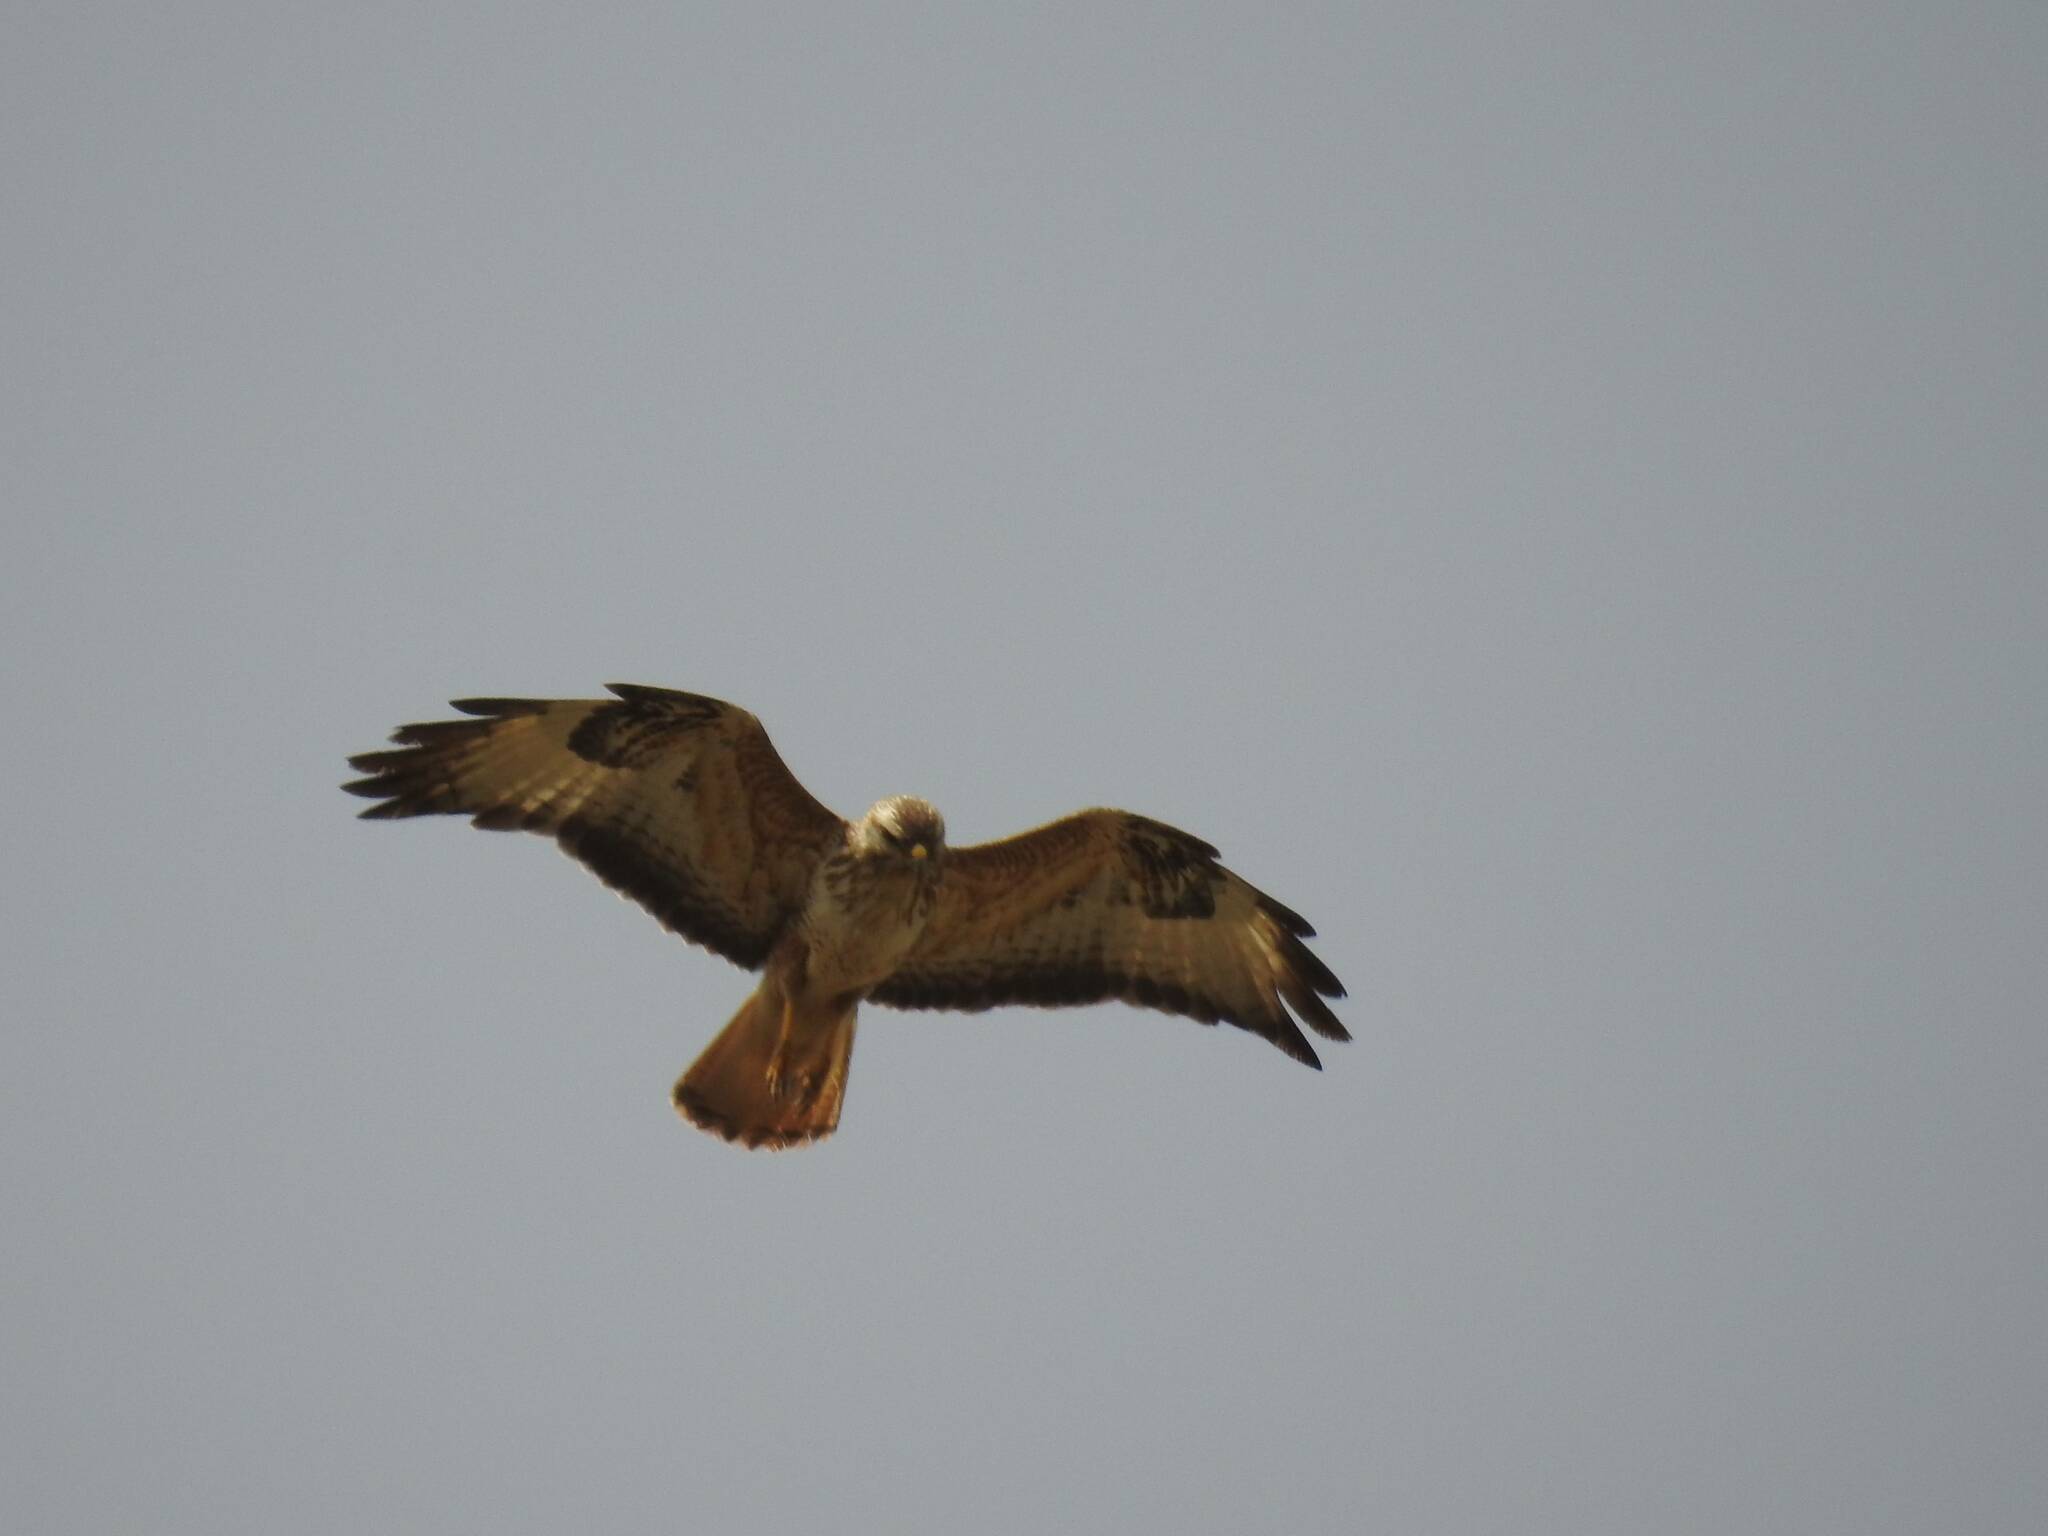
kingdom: Animalia
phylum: Chordata
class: Aves
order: Accipitriformes
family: Accipitridae
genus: Buteo
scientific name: Buteo rufinus
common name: Long-legged buzzard
